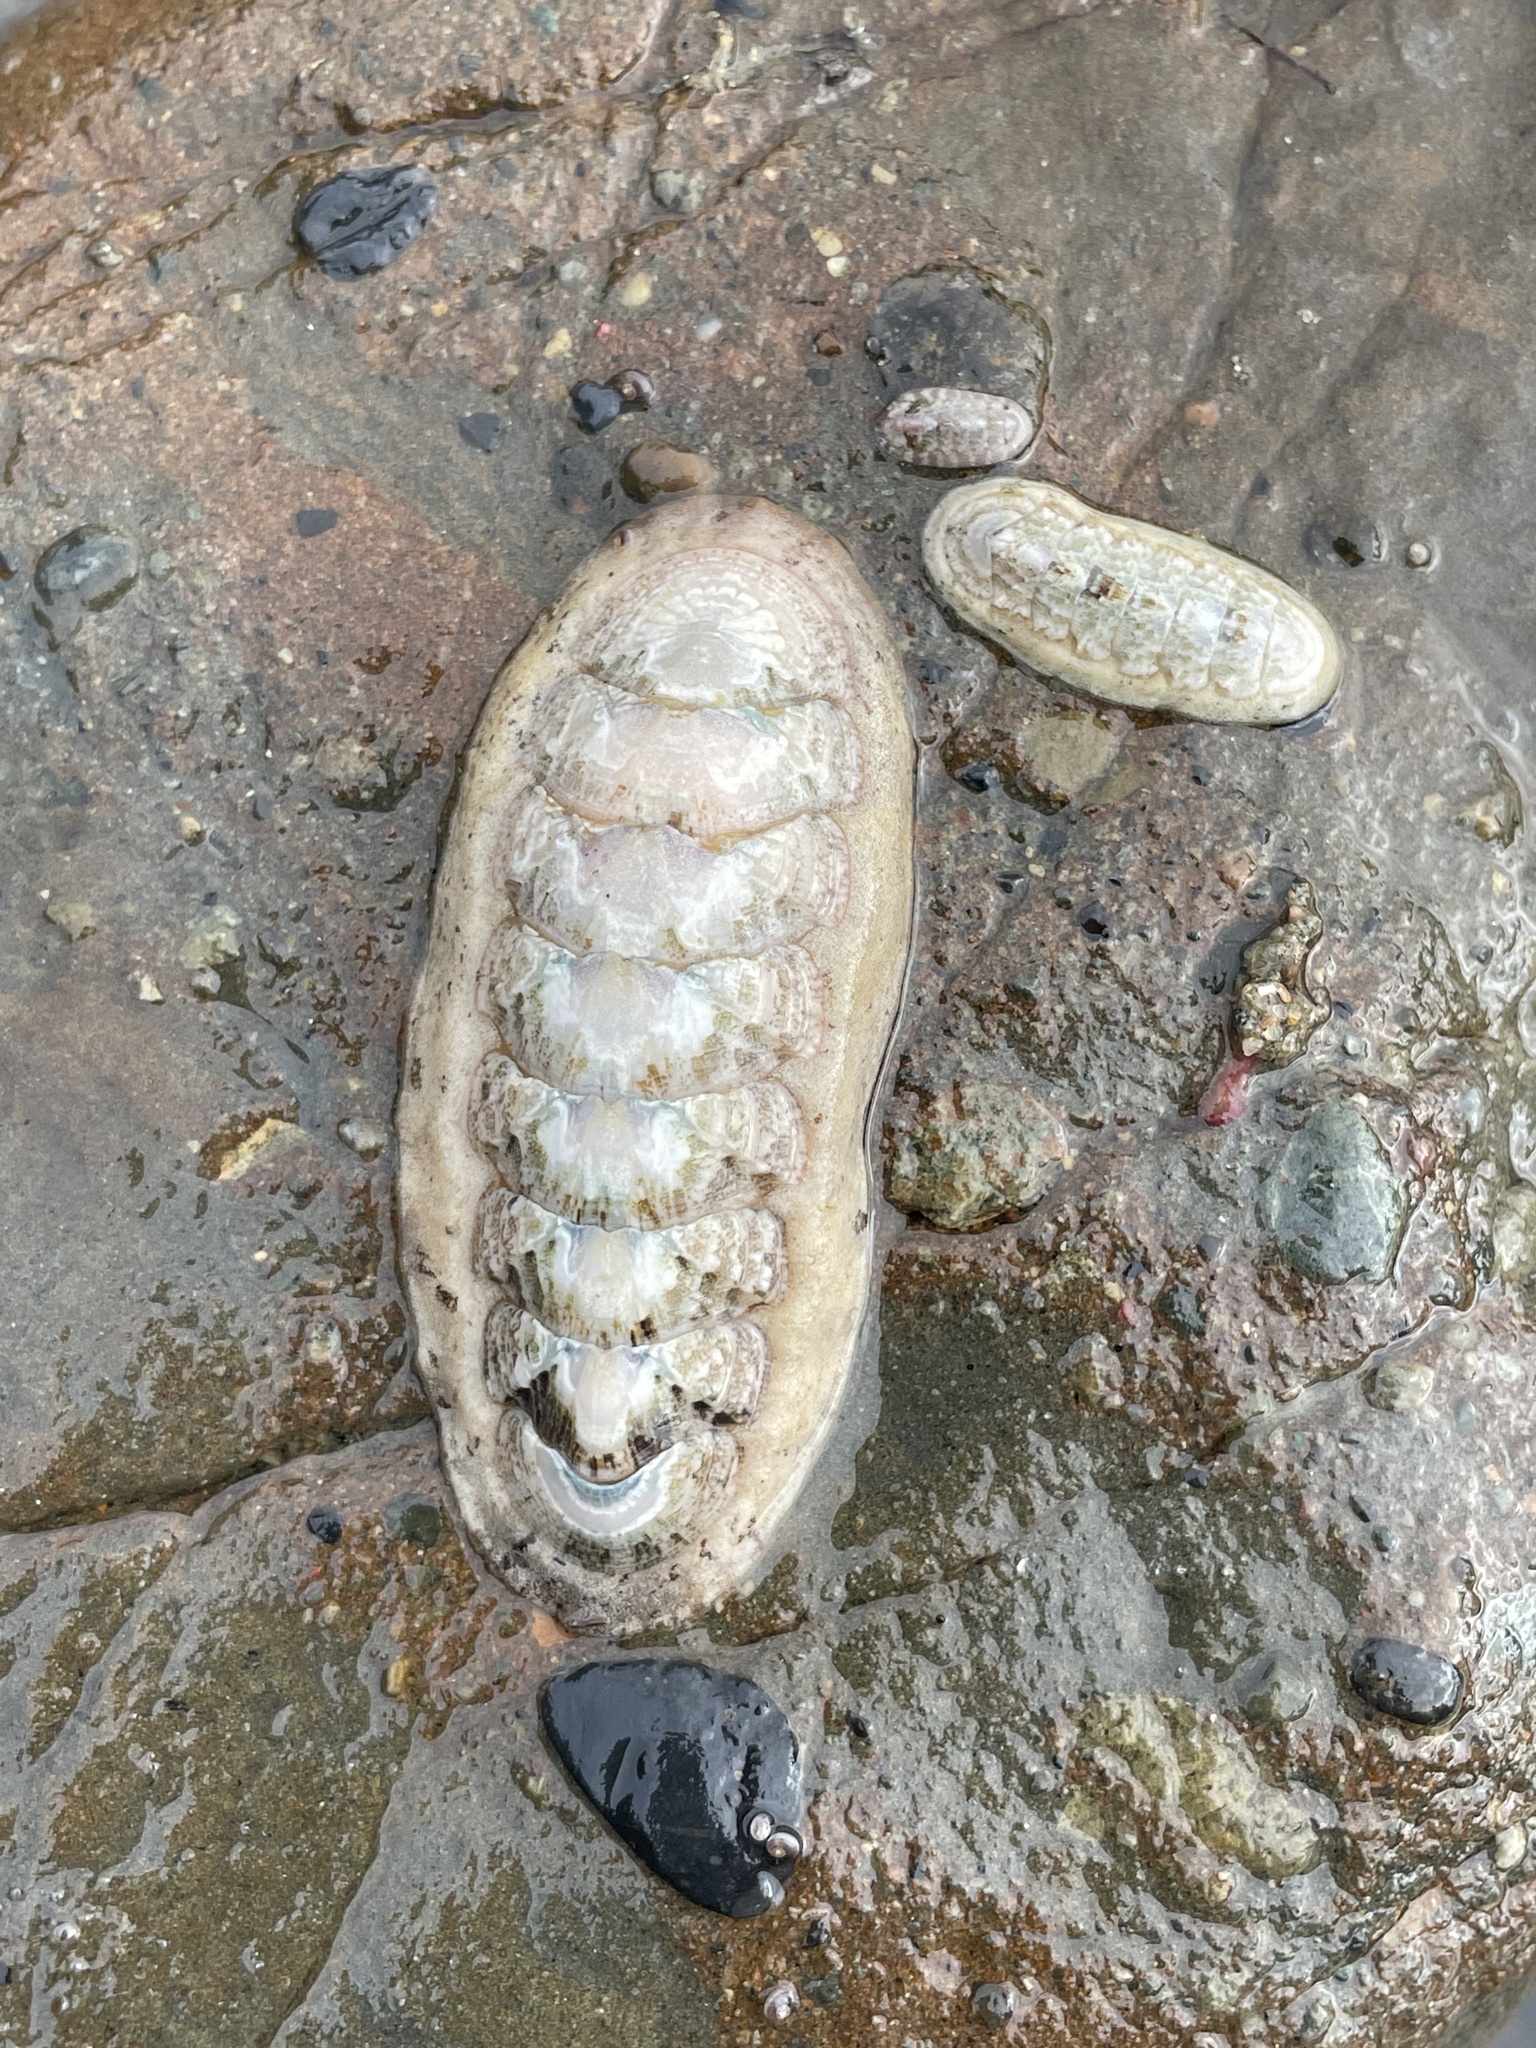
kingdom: Animalia
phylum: Mollusca
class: Polyplacophora
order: Chitonida
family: Ischnochitonidae
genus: Stenoplax
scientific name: Stenoplax heathiana
